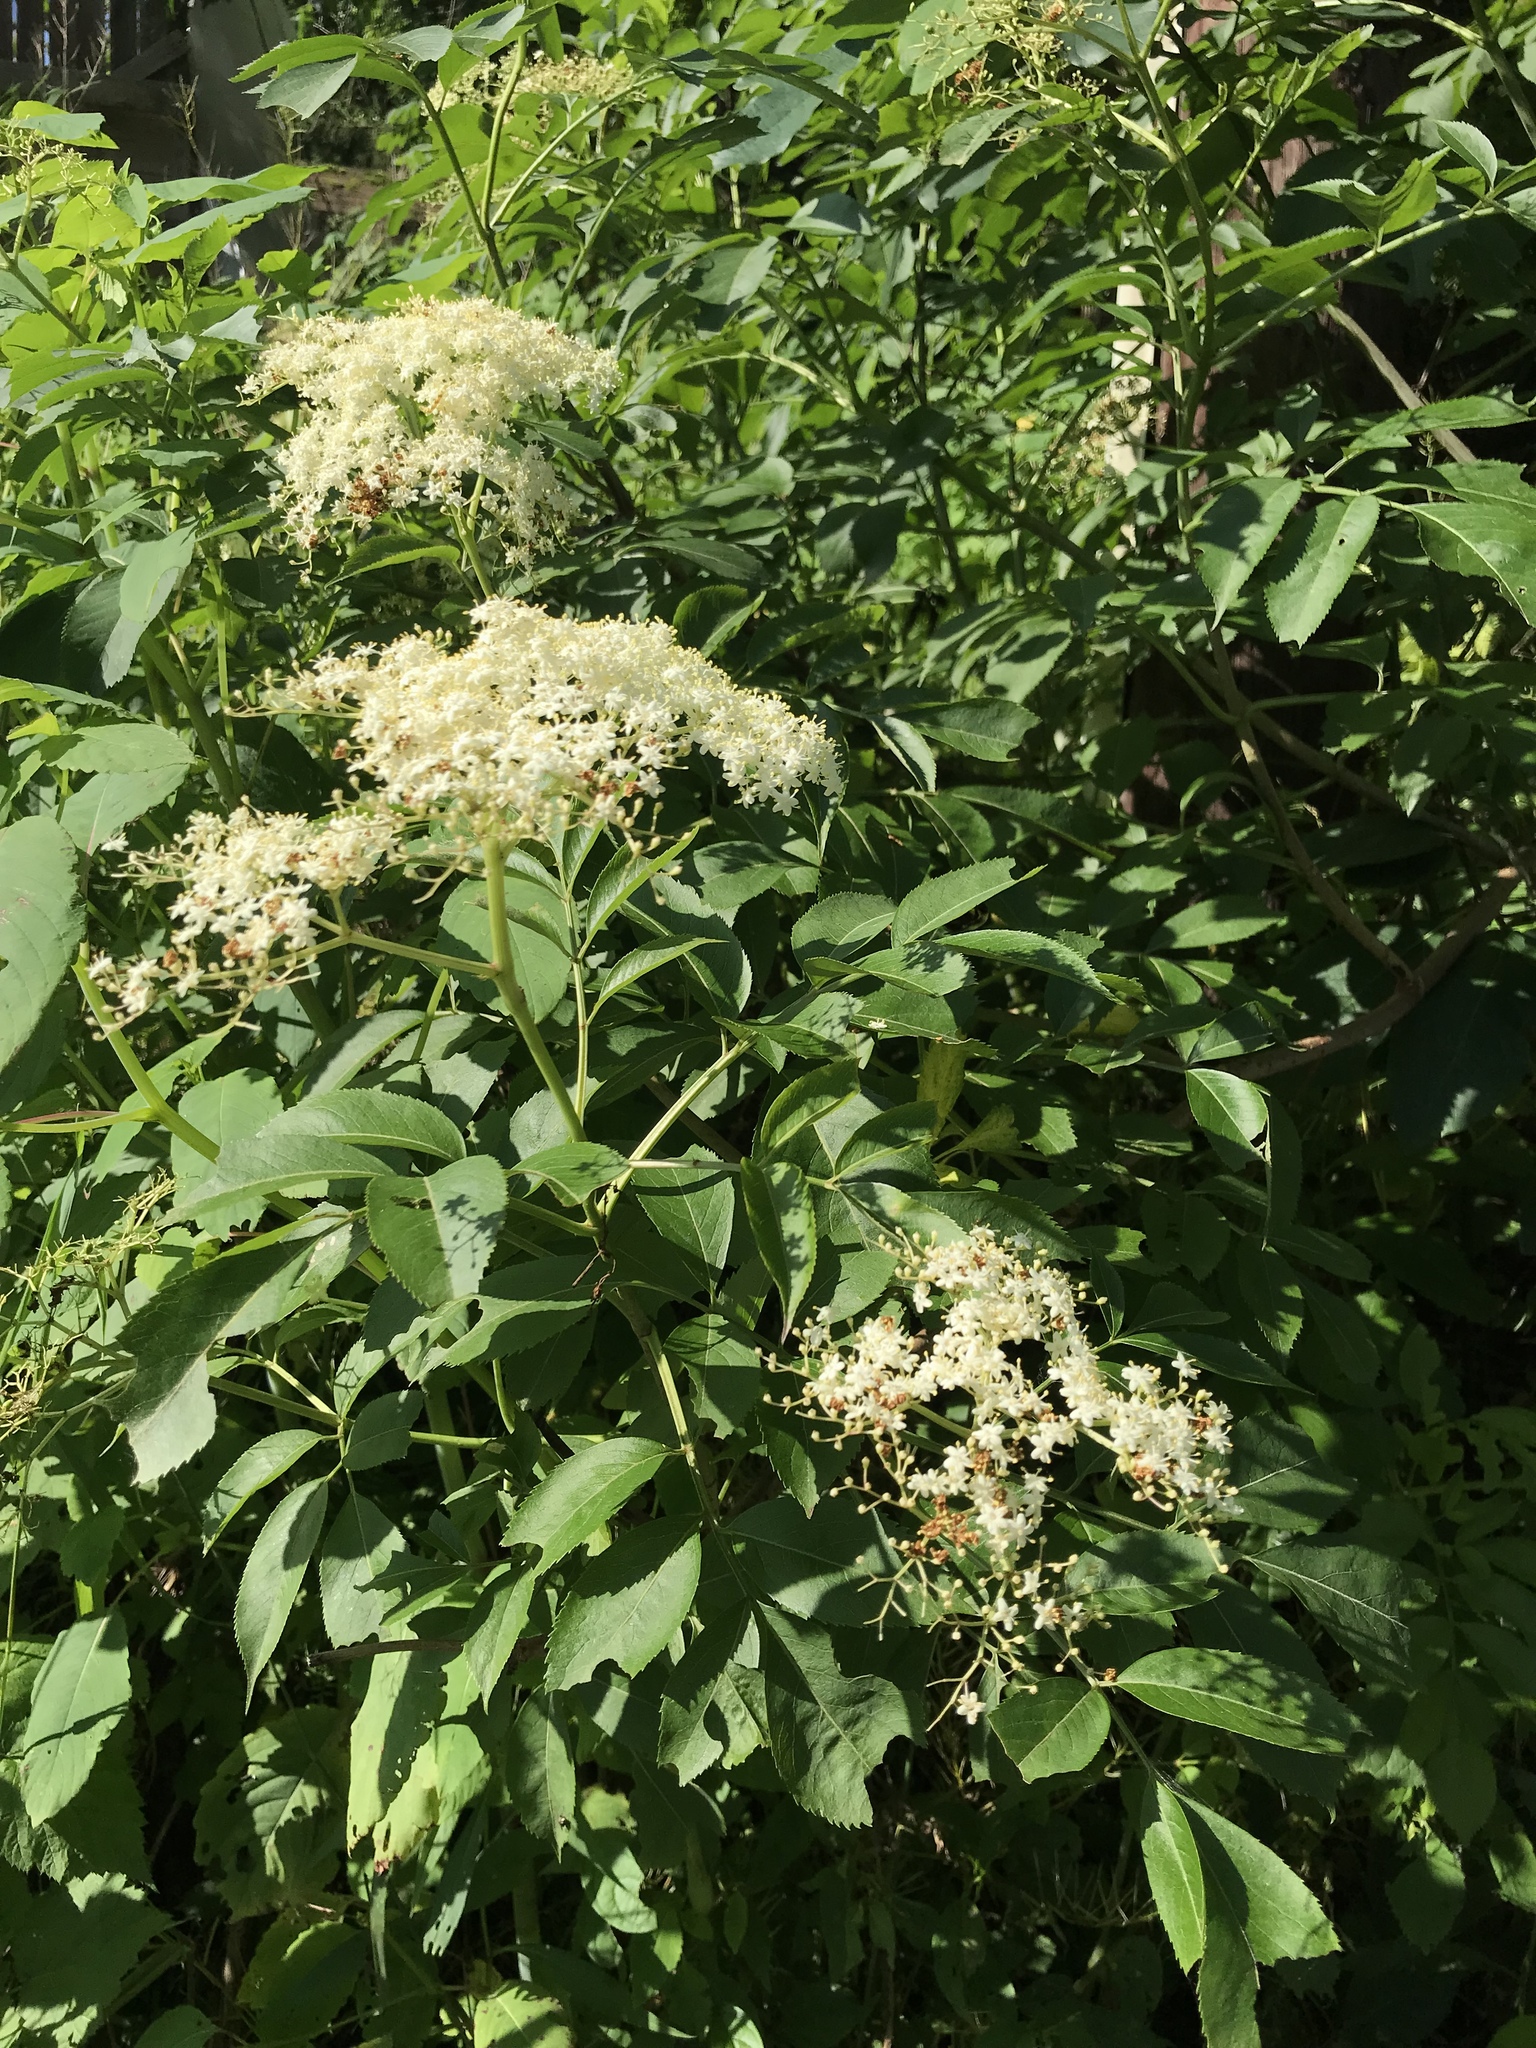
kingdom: Plantae
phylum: Tracheophyta
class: Magnoliopsida
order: Dipsacales
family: Viburnaceae
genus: Sambucus
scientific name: Sambucus canadensis
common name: American elder
